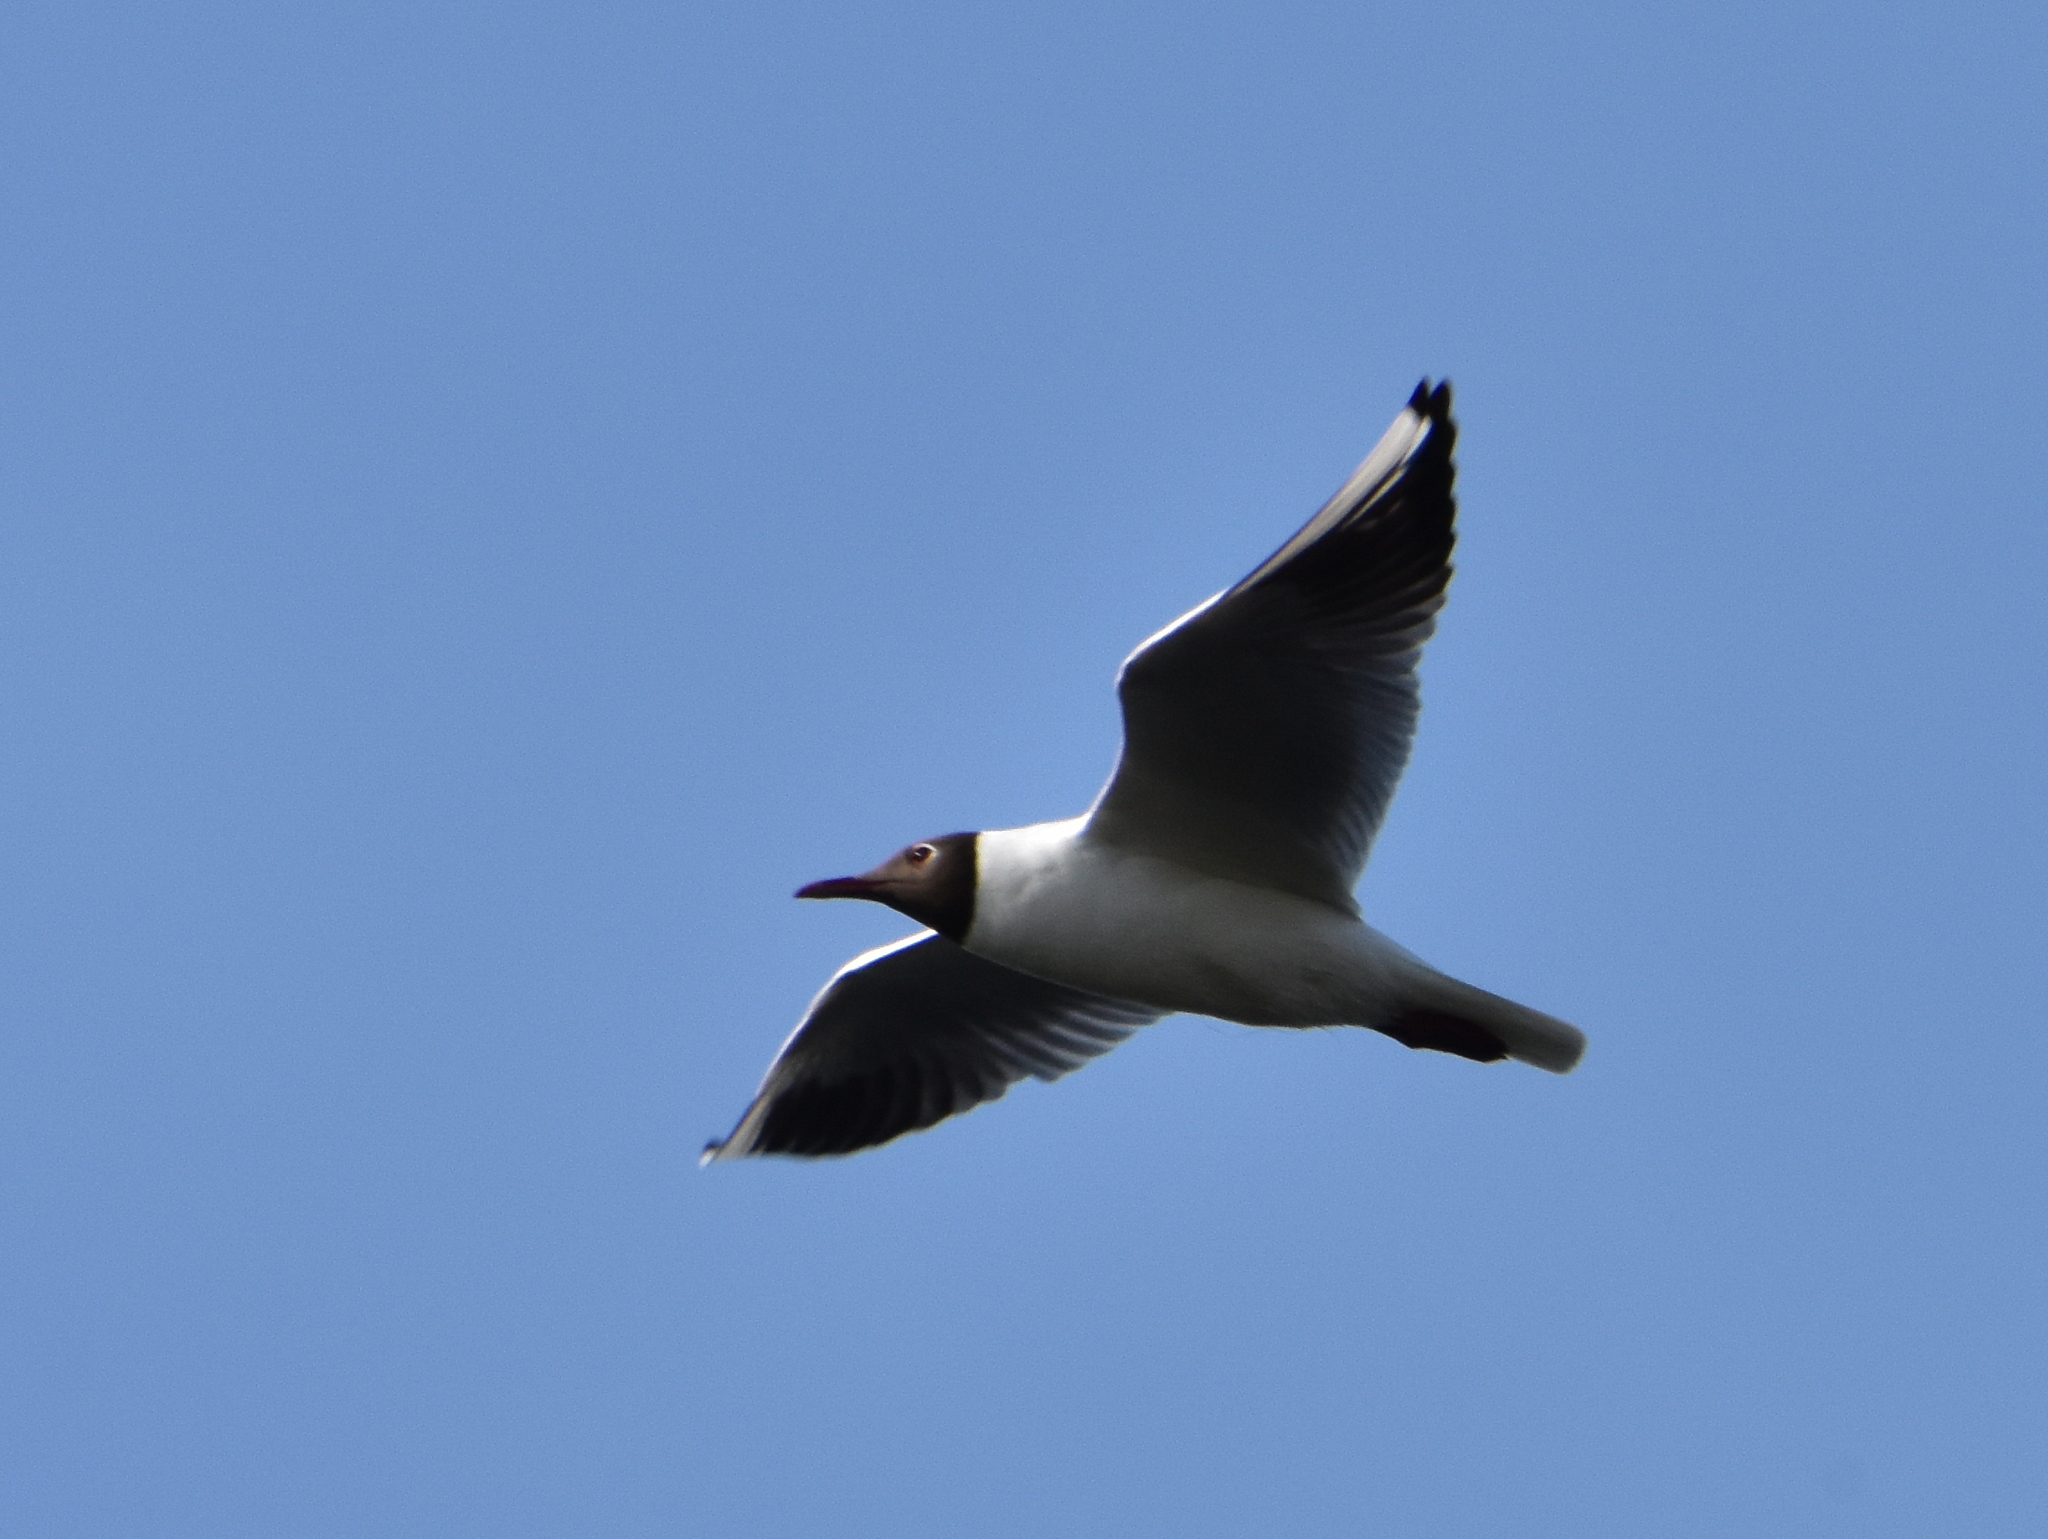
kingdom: Animalia
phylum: Chordata
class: Aves
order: Charadriiformes
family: Laridae
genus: Chroicocephalus
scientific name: Chroicocephalus ridibundus
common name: Black-headed gull
